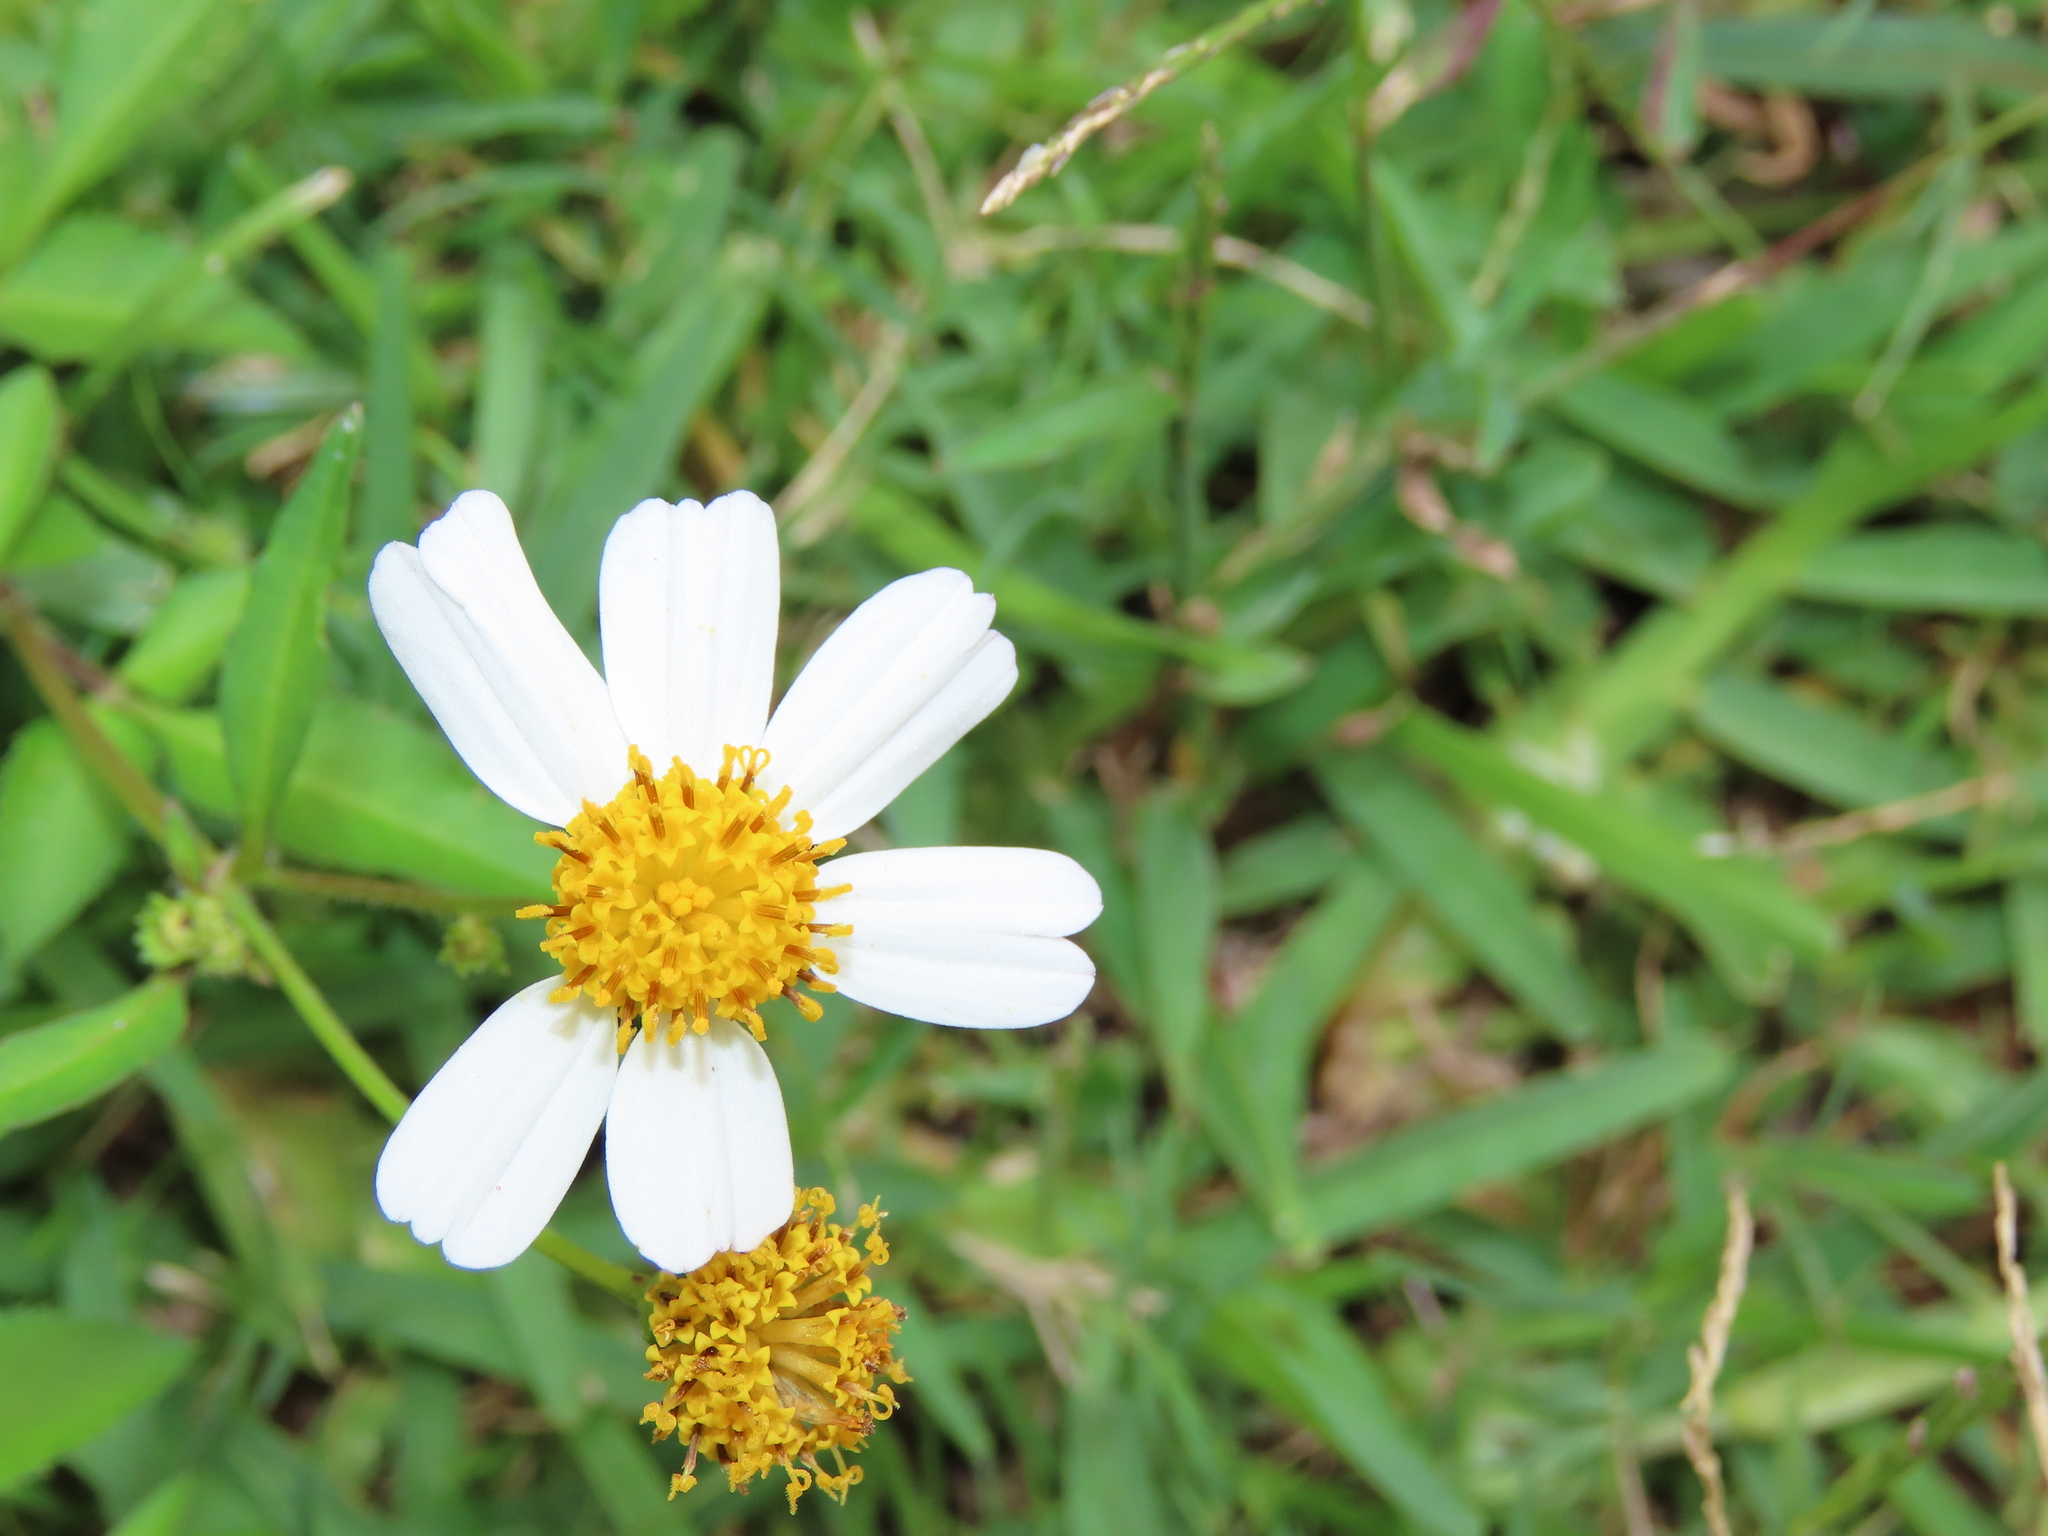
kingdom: Plantae
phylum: Tracheophyta
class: Magnoliopsida
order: Asterales
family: Asteraceae
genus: Bidens
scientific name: Bidens alba
